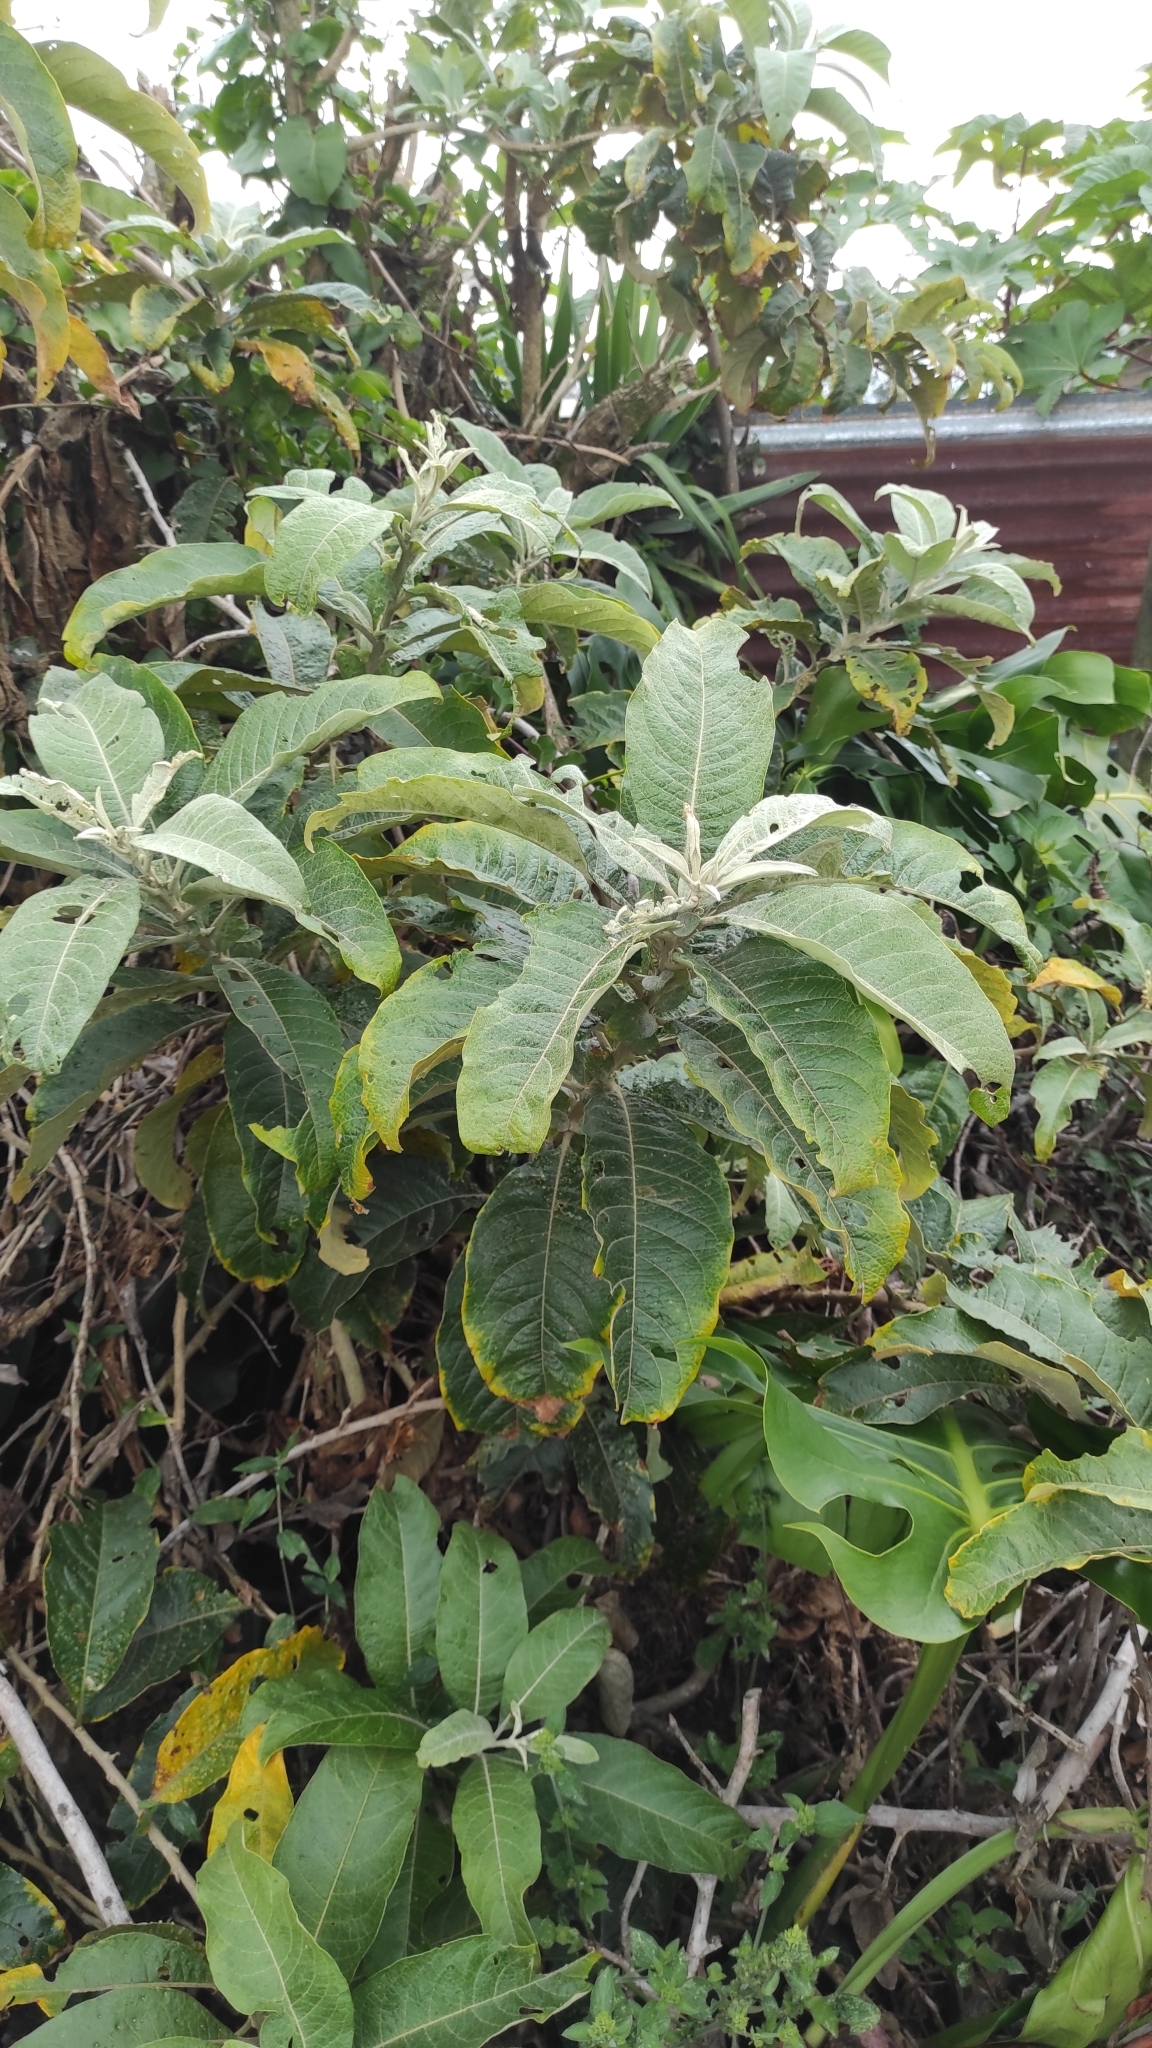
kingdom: Plantae
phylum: Tracheophyta
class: Magnoliopsida
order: Solanales
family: Solanaceae
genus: Iochroma
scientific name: Iochroma arborescens
